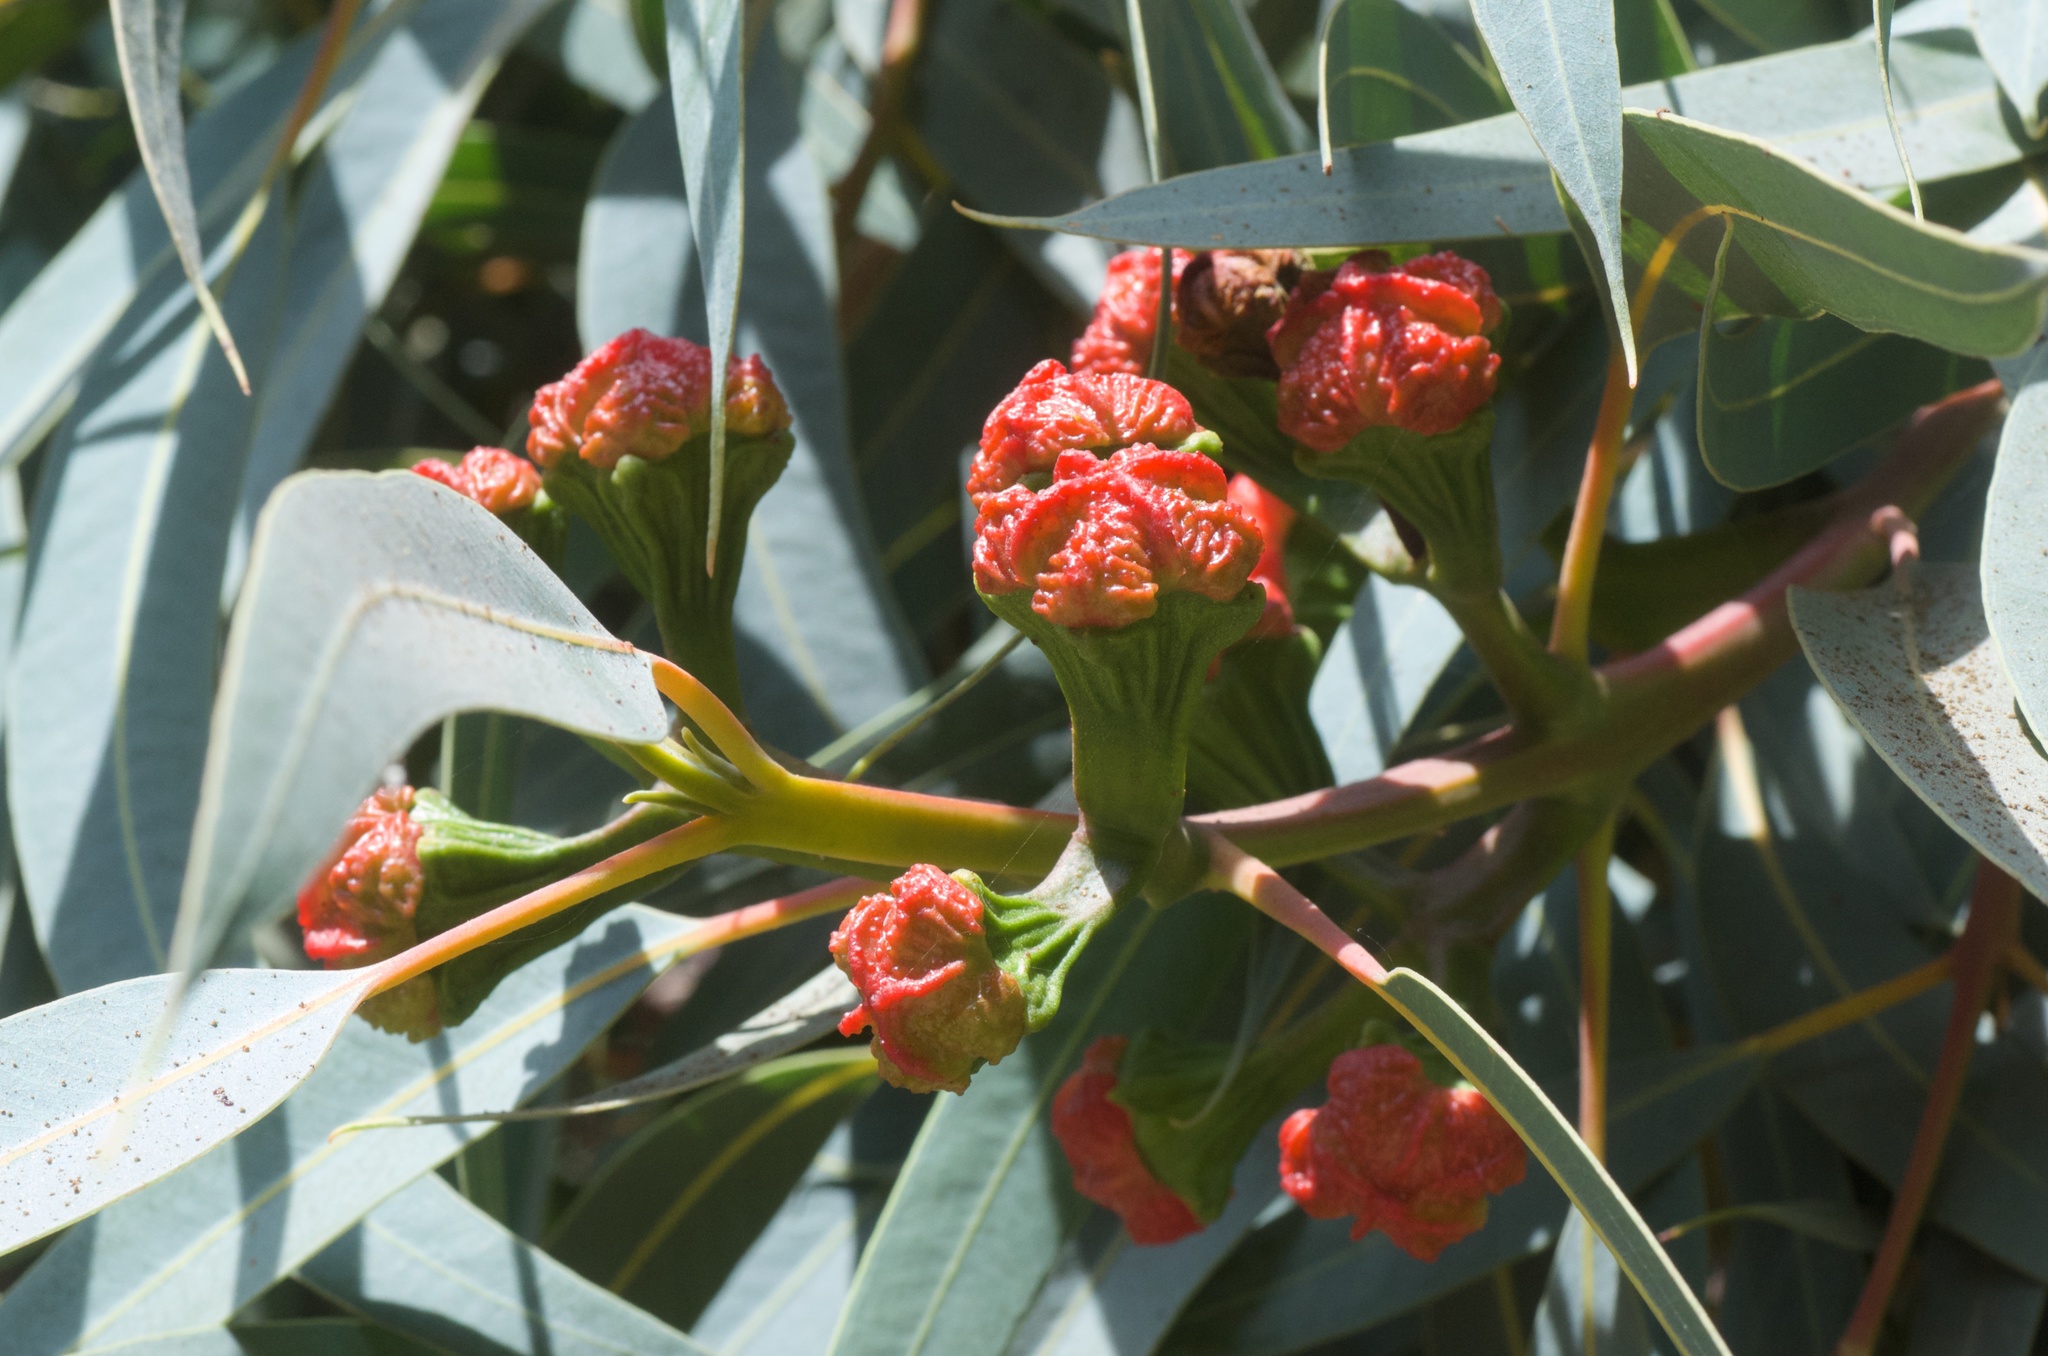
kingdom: Plantae
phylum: Tracheophyta
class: Magnoliopsida
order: Myrtales
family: Myrtaceae
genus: Eucalyptus
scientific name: Eucalyptus erythrocorys
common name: Bookara gum
